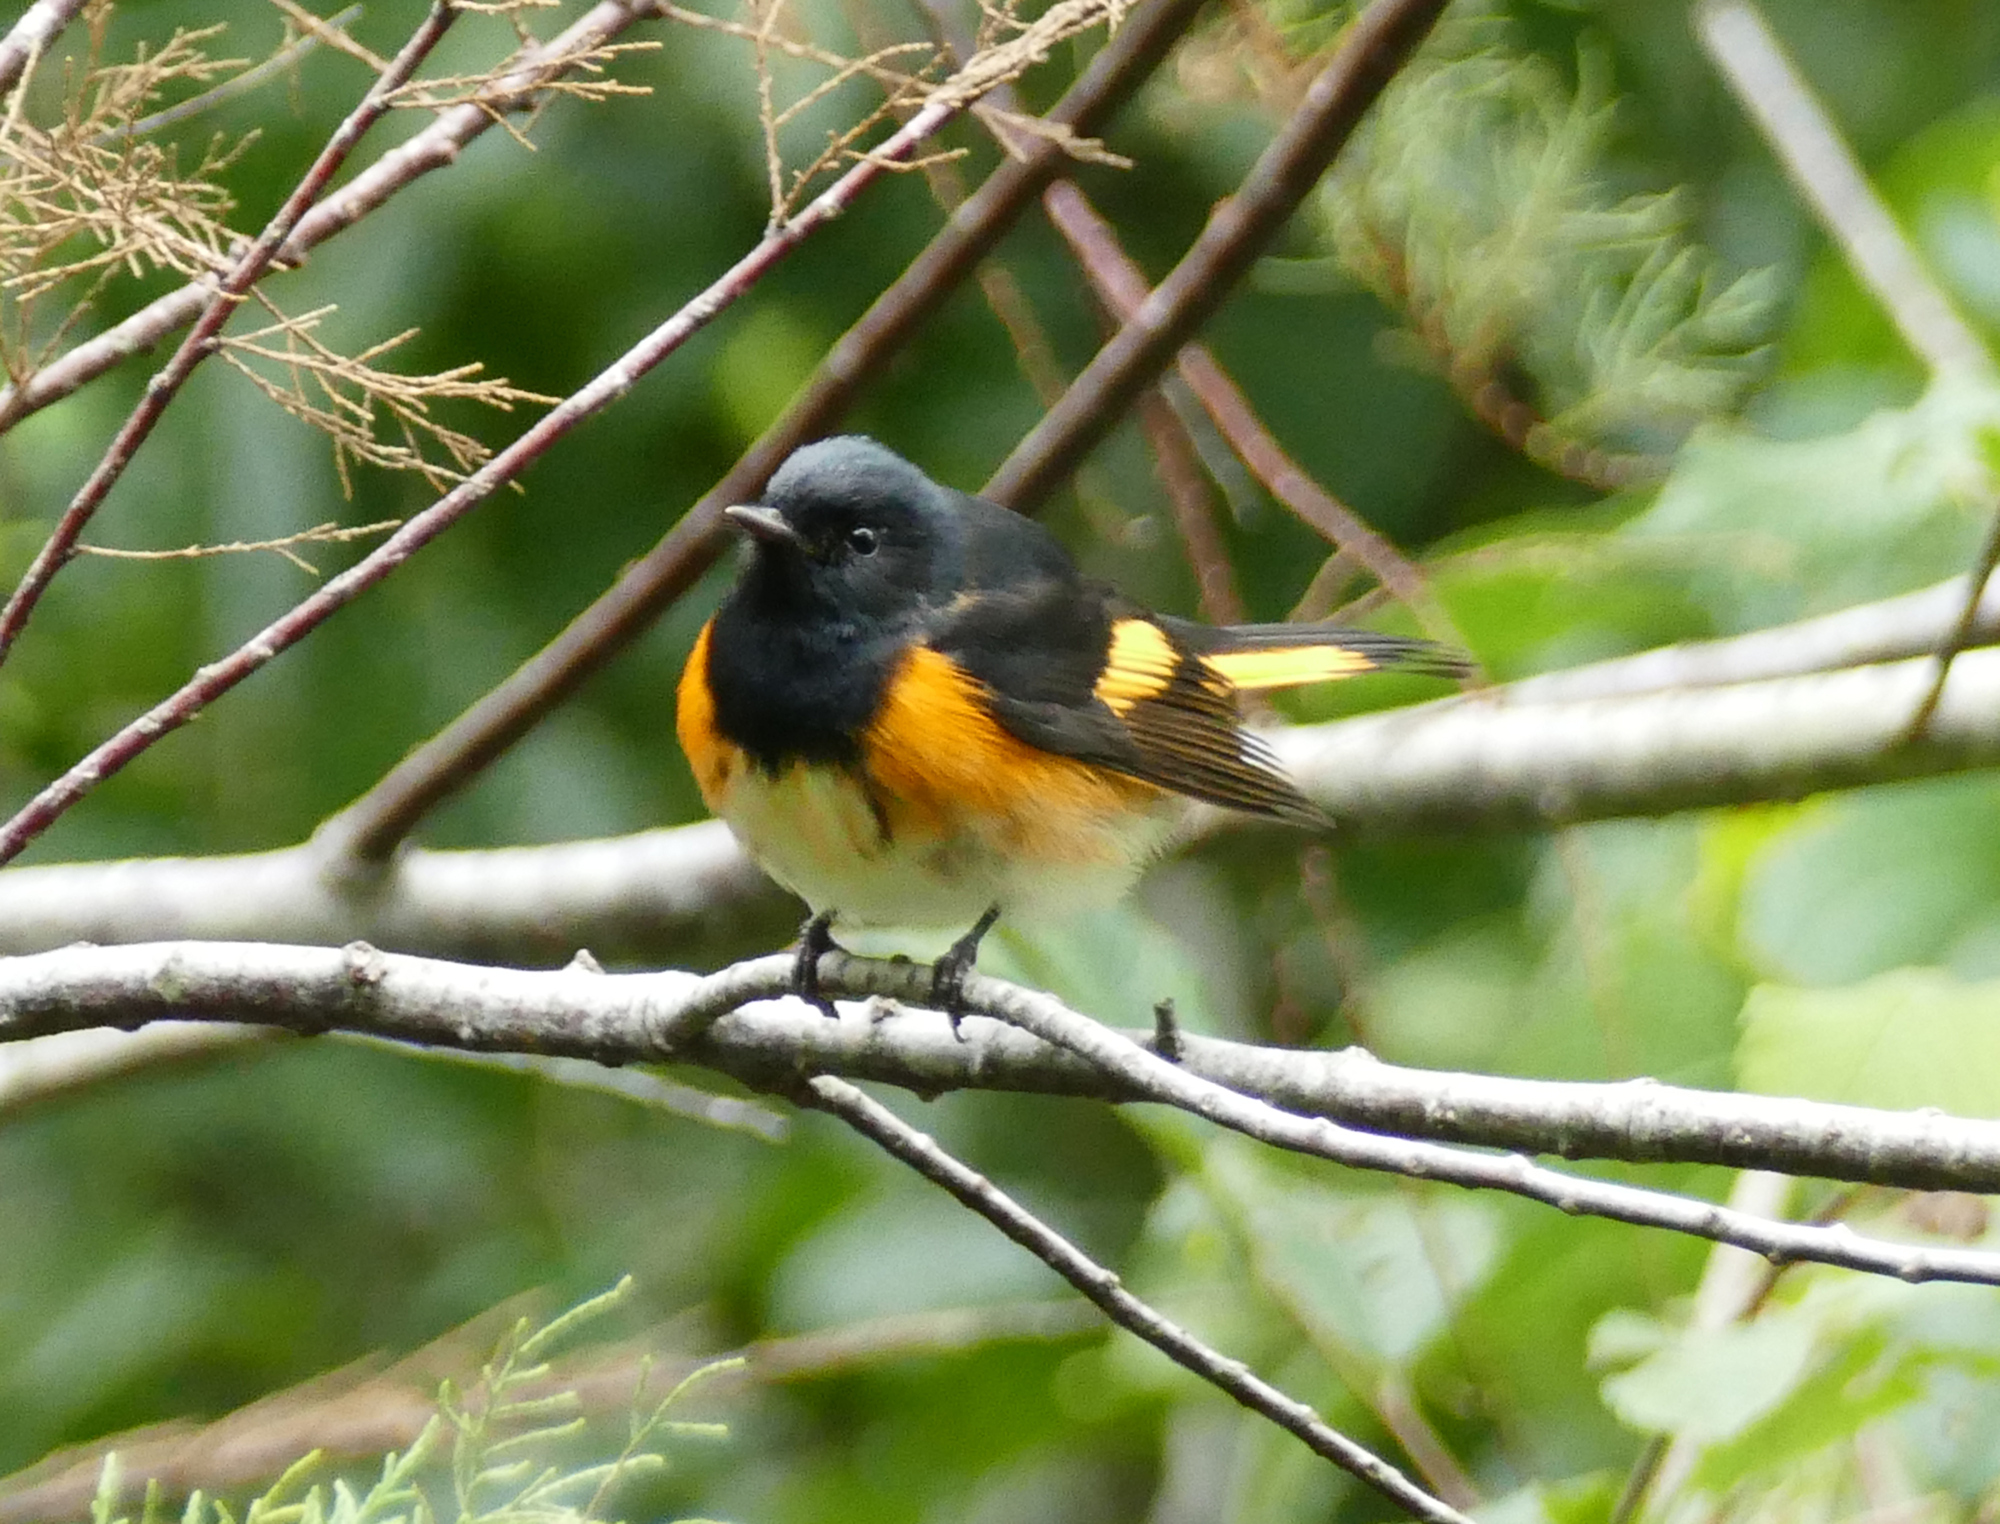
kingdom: Animalia
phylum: Chordata
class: Aves
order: Passeriformes
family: Parulidae
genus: Setophaga
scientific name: Setophaga ruticilla
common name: American redstart
